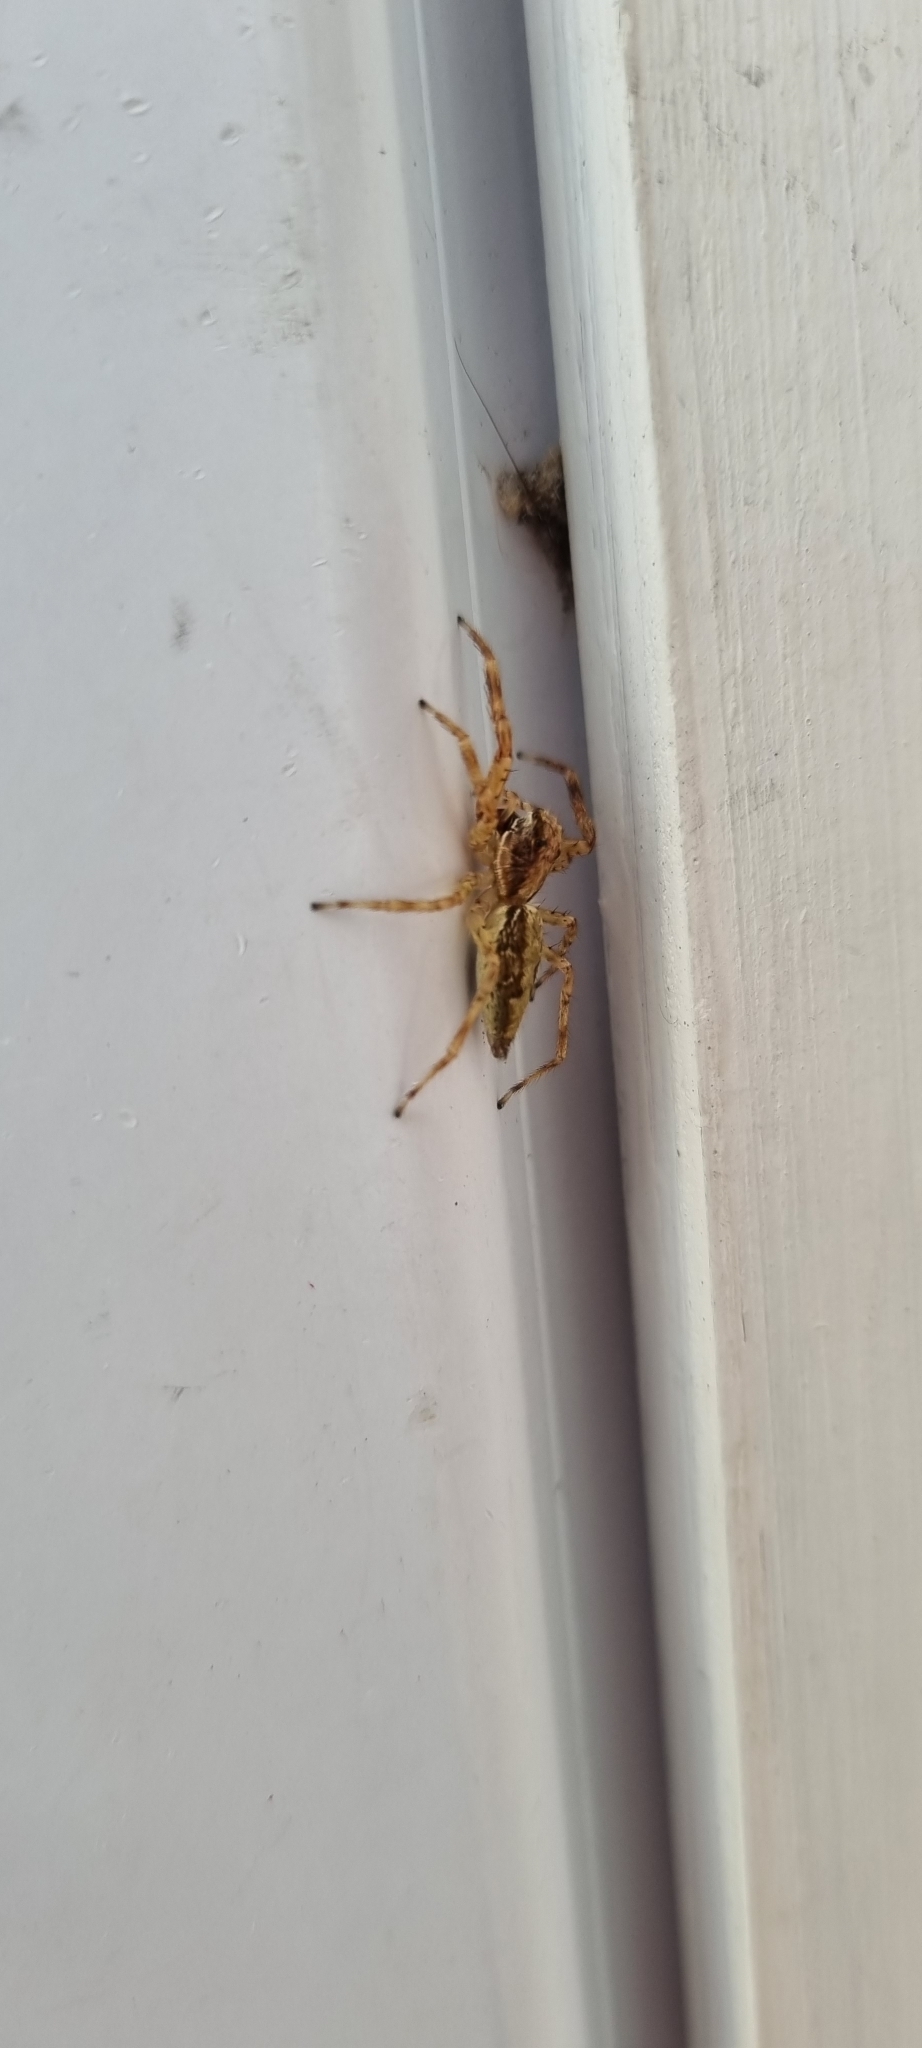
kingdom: Animalia
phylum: Arthropoda
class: Arachnida
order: Araneae
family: Salticidae
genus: Helpis
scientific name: Helpis minitabunda
